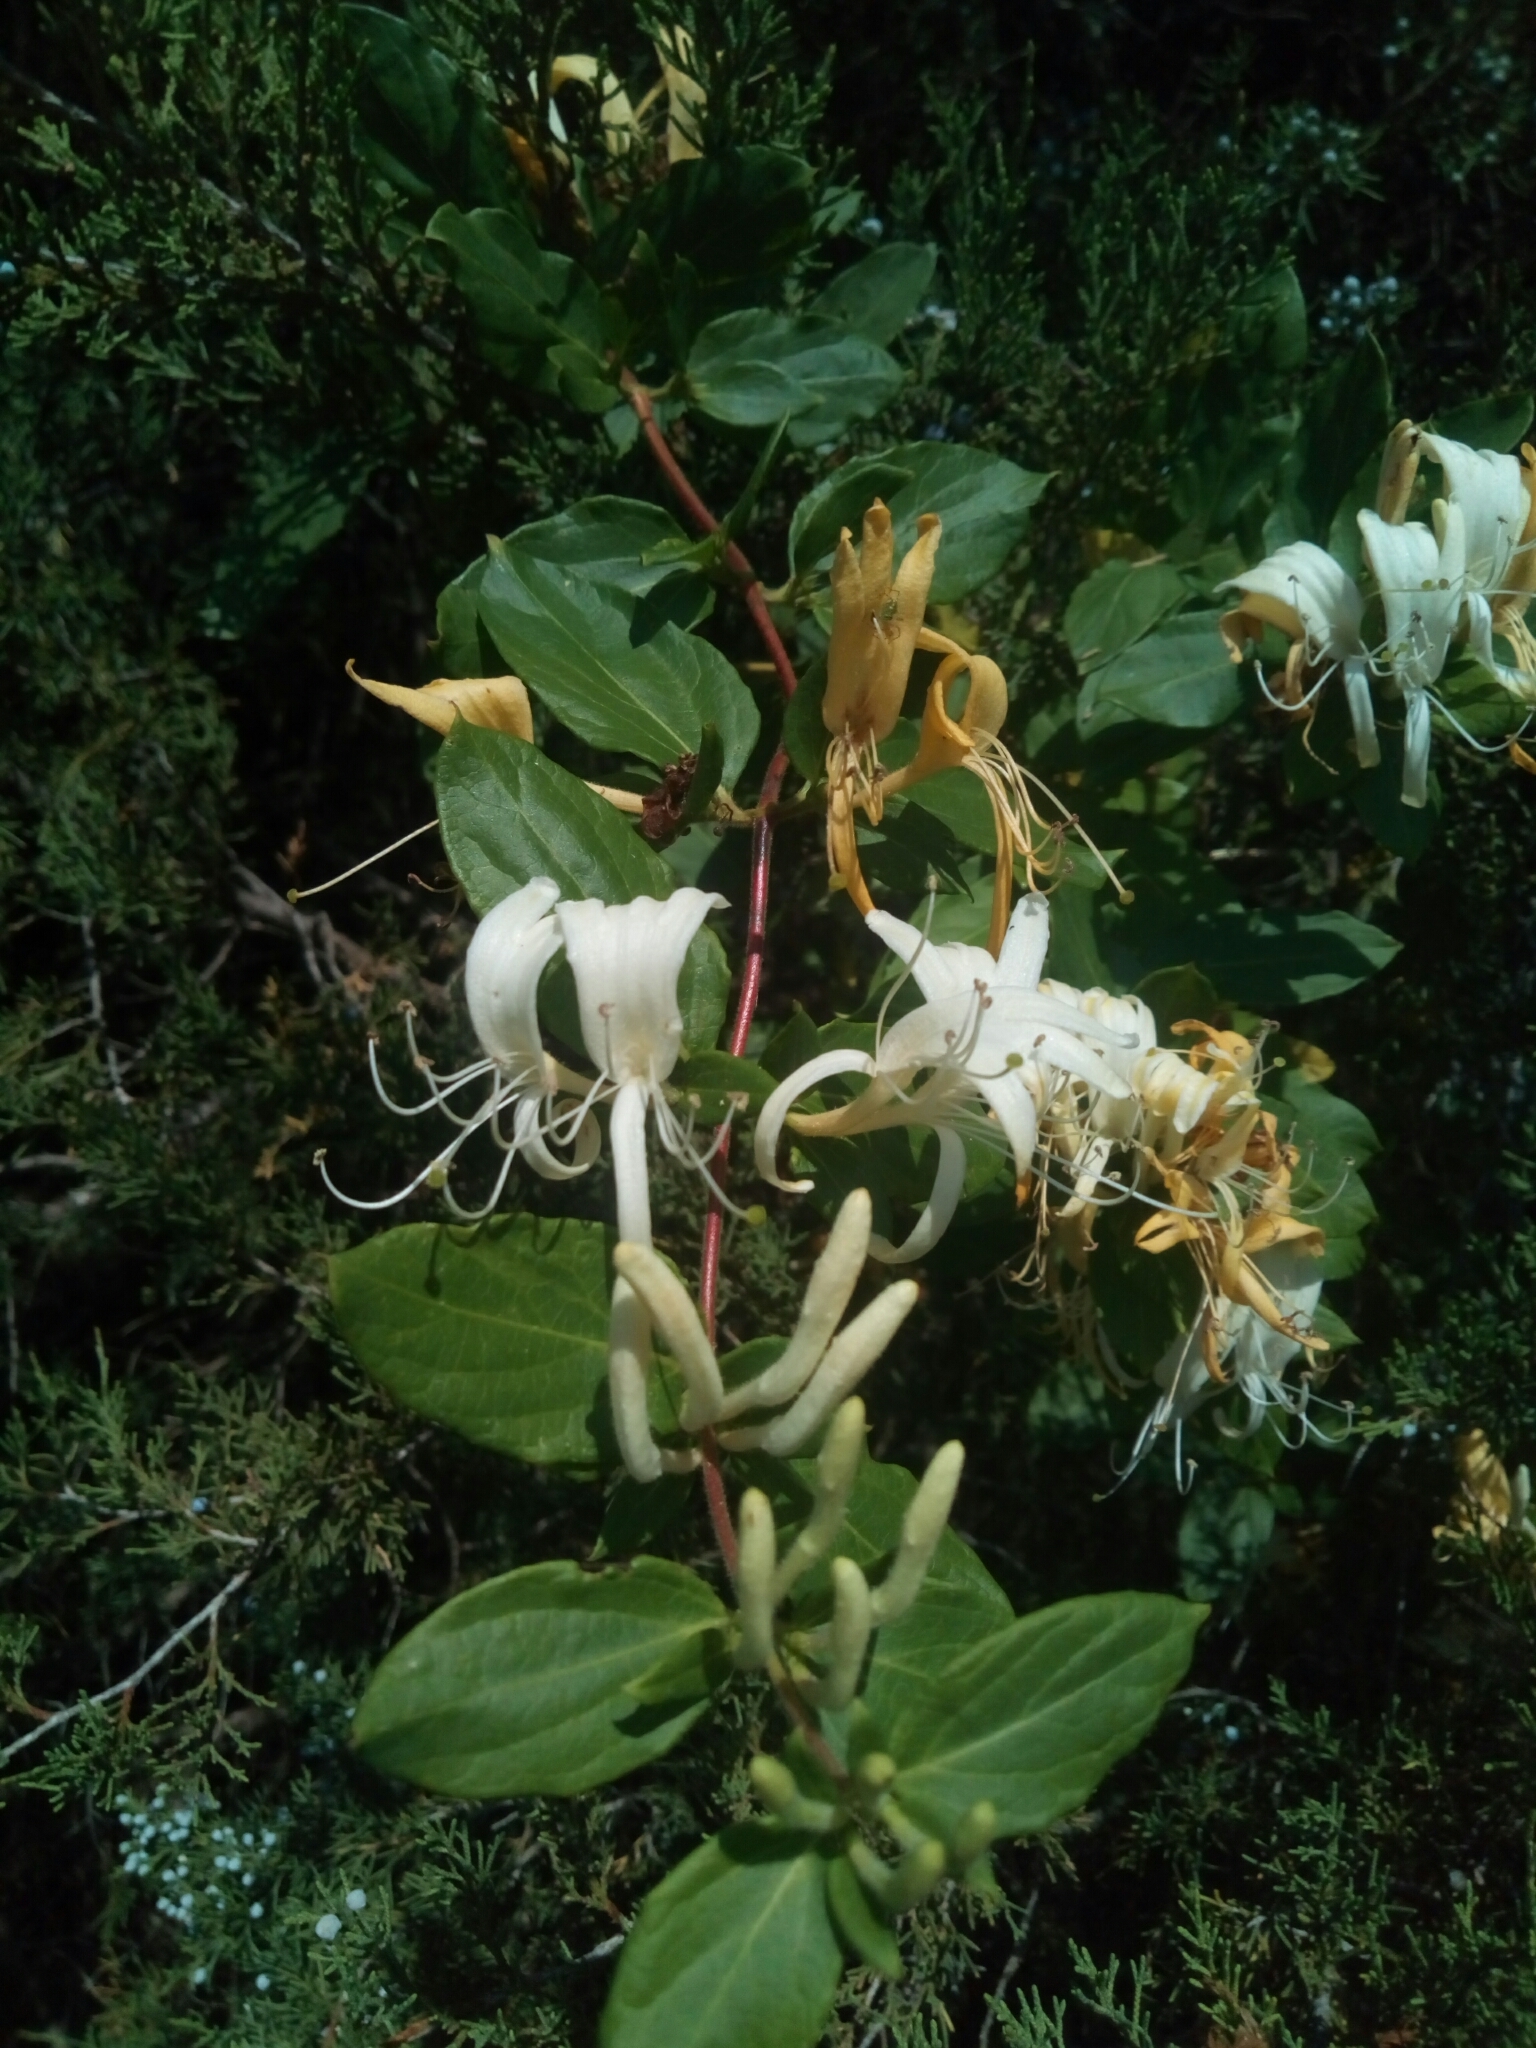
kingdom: Plantae
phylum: Tracheophyta
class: Magnoliopsida
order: Dipsacales
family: Caprifoliaceae
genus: Lonicera
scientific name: Lonicera japonica
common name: Japanese honeysuckle
